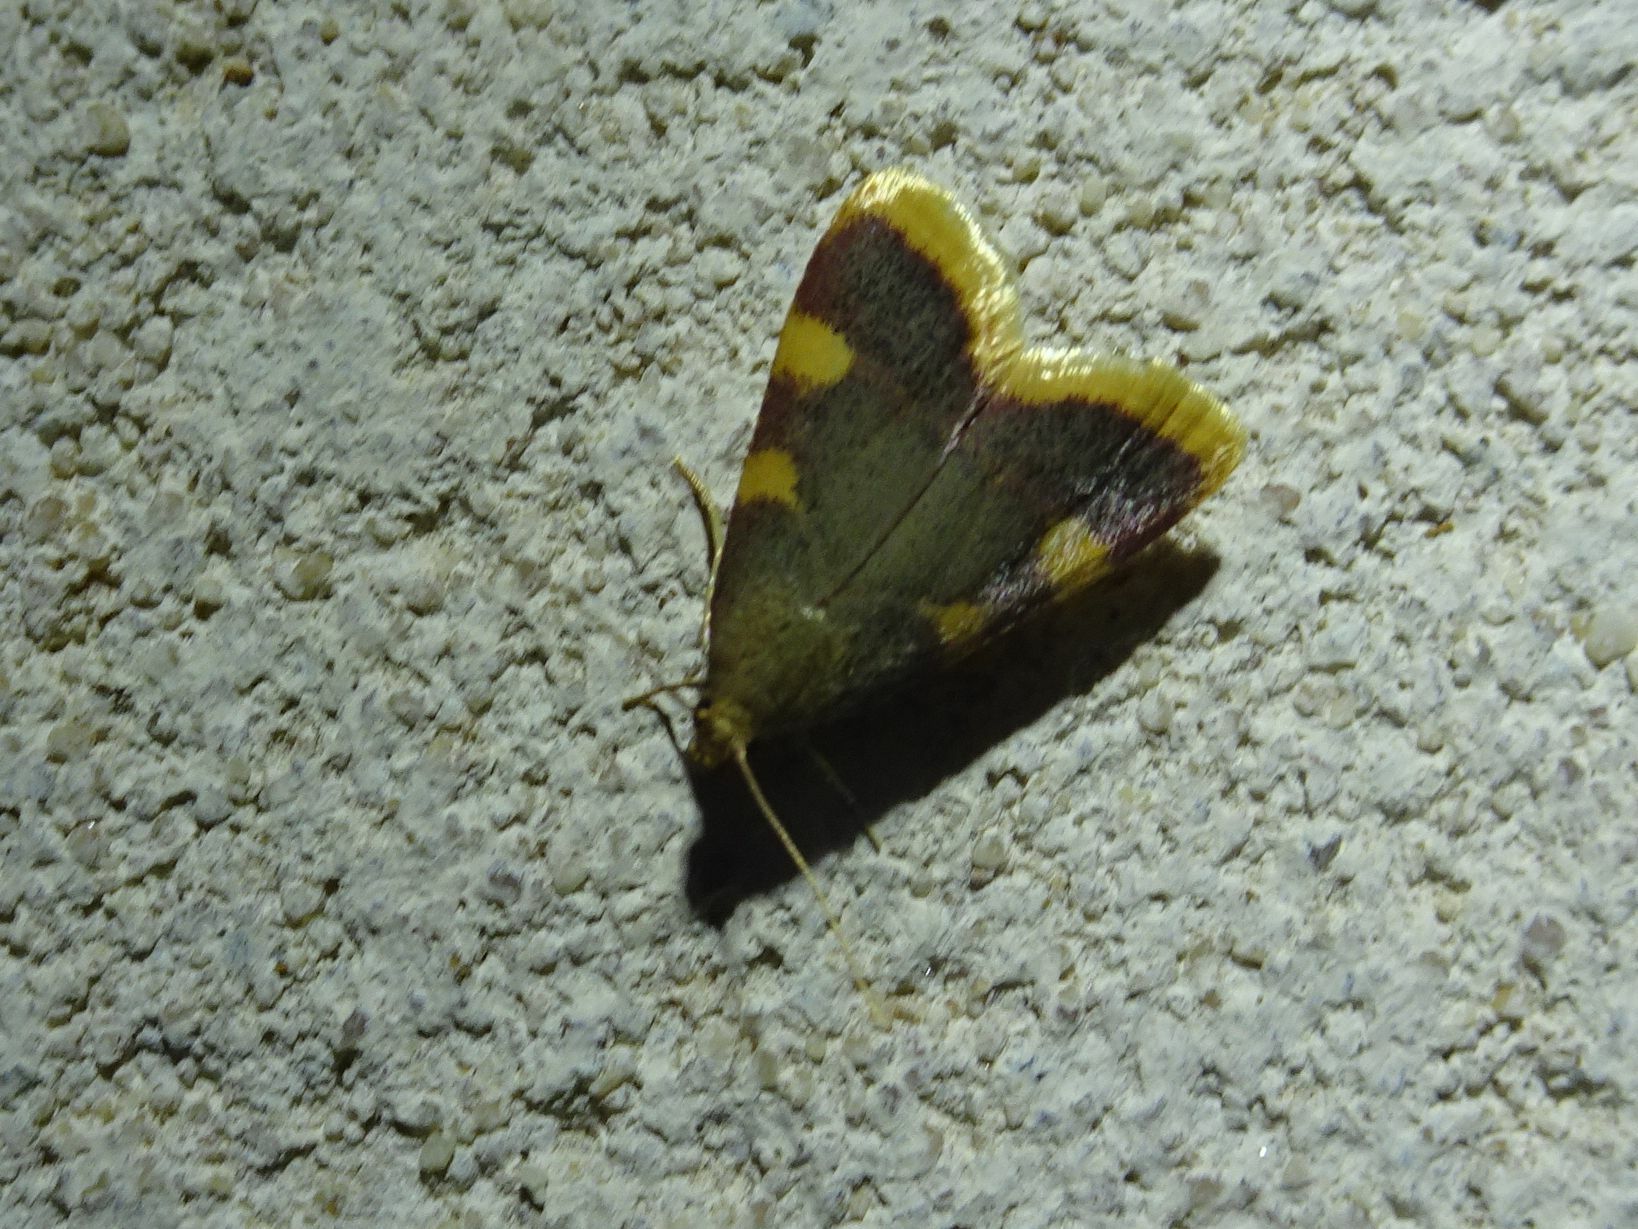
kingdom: Animalia
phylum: Arthropoda
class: Insecta
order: Lepidoptera
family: Pyralidae
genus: Hypsopygia
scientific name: Hypsopygia costalis
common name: Gold triangle
